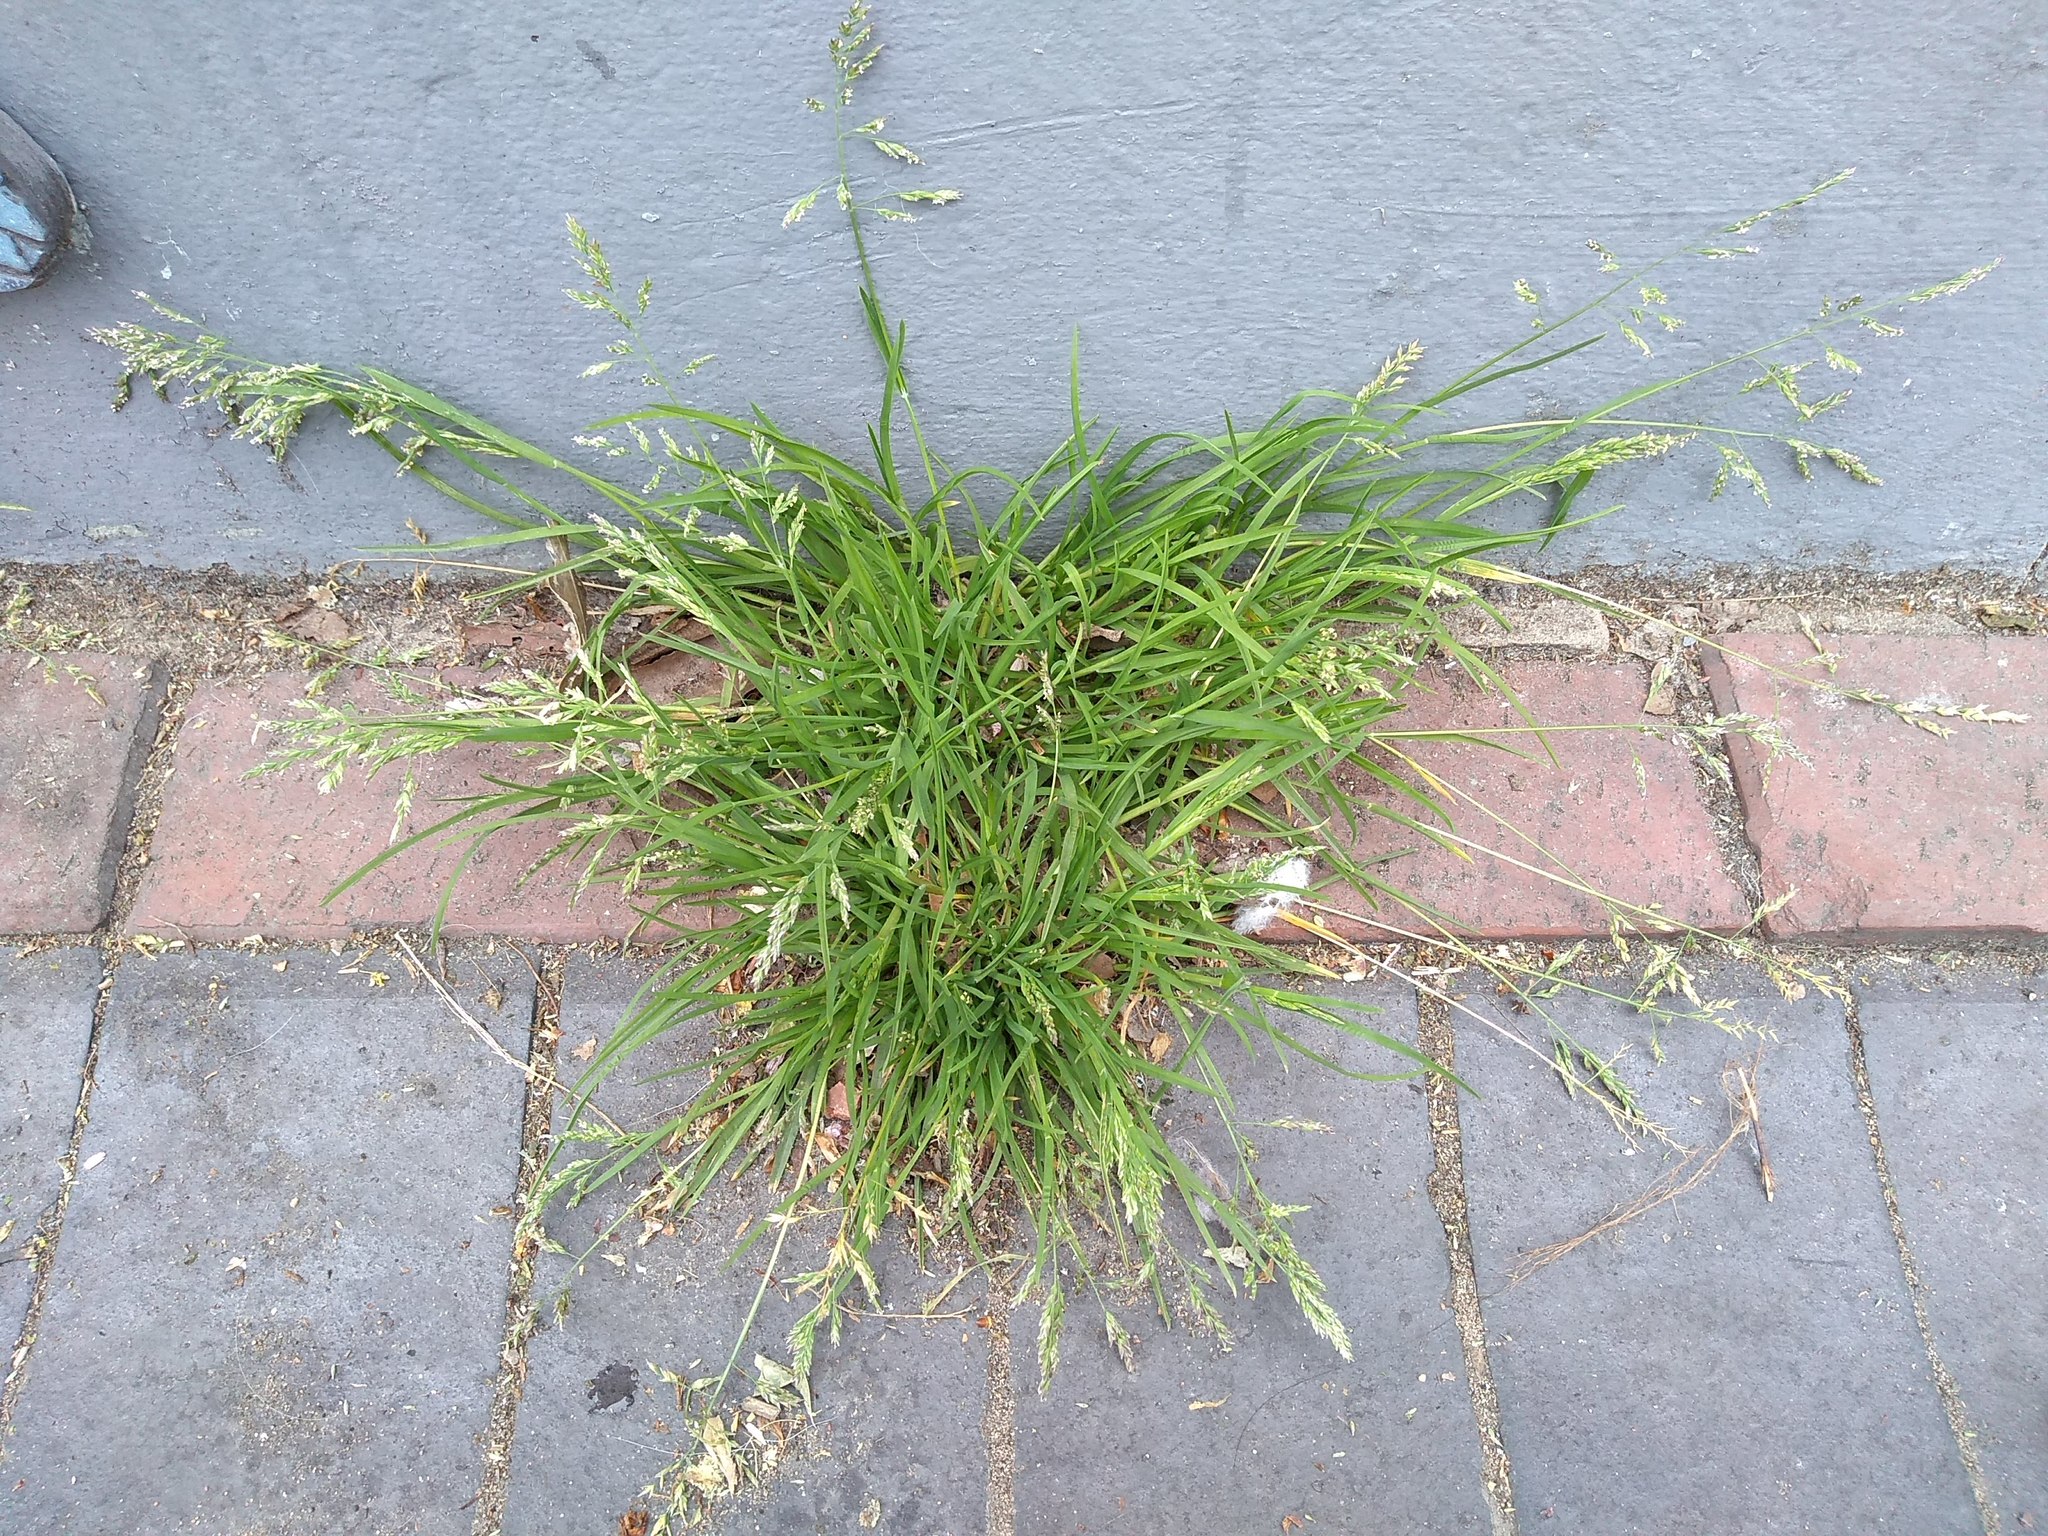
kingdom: Plantae
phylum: Tracheophyta
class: Liliopsida
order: Poales
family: Poaceae
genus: Poa
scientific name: Poa annua
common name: Annual bluegrass
